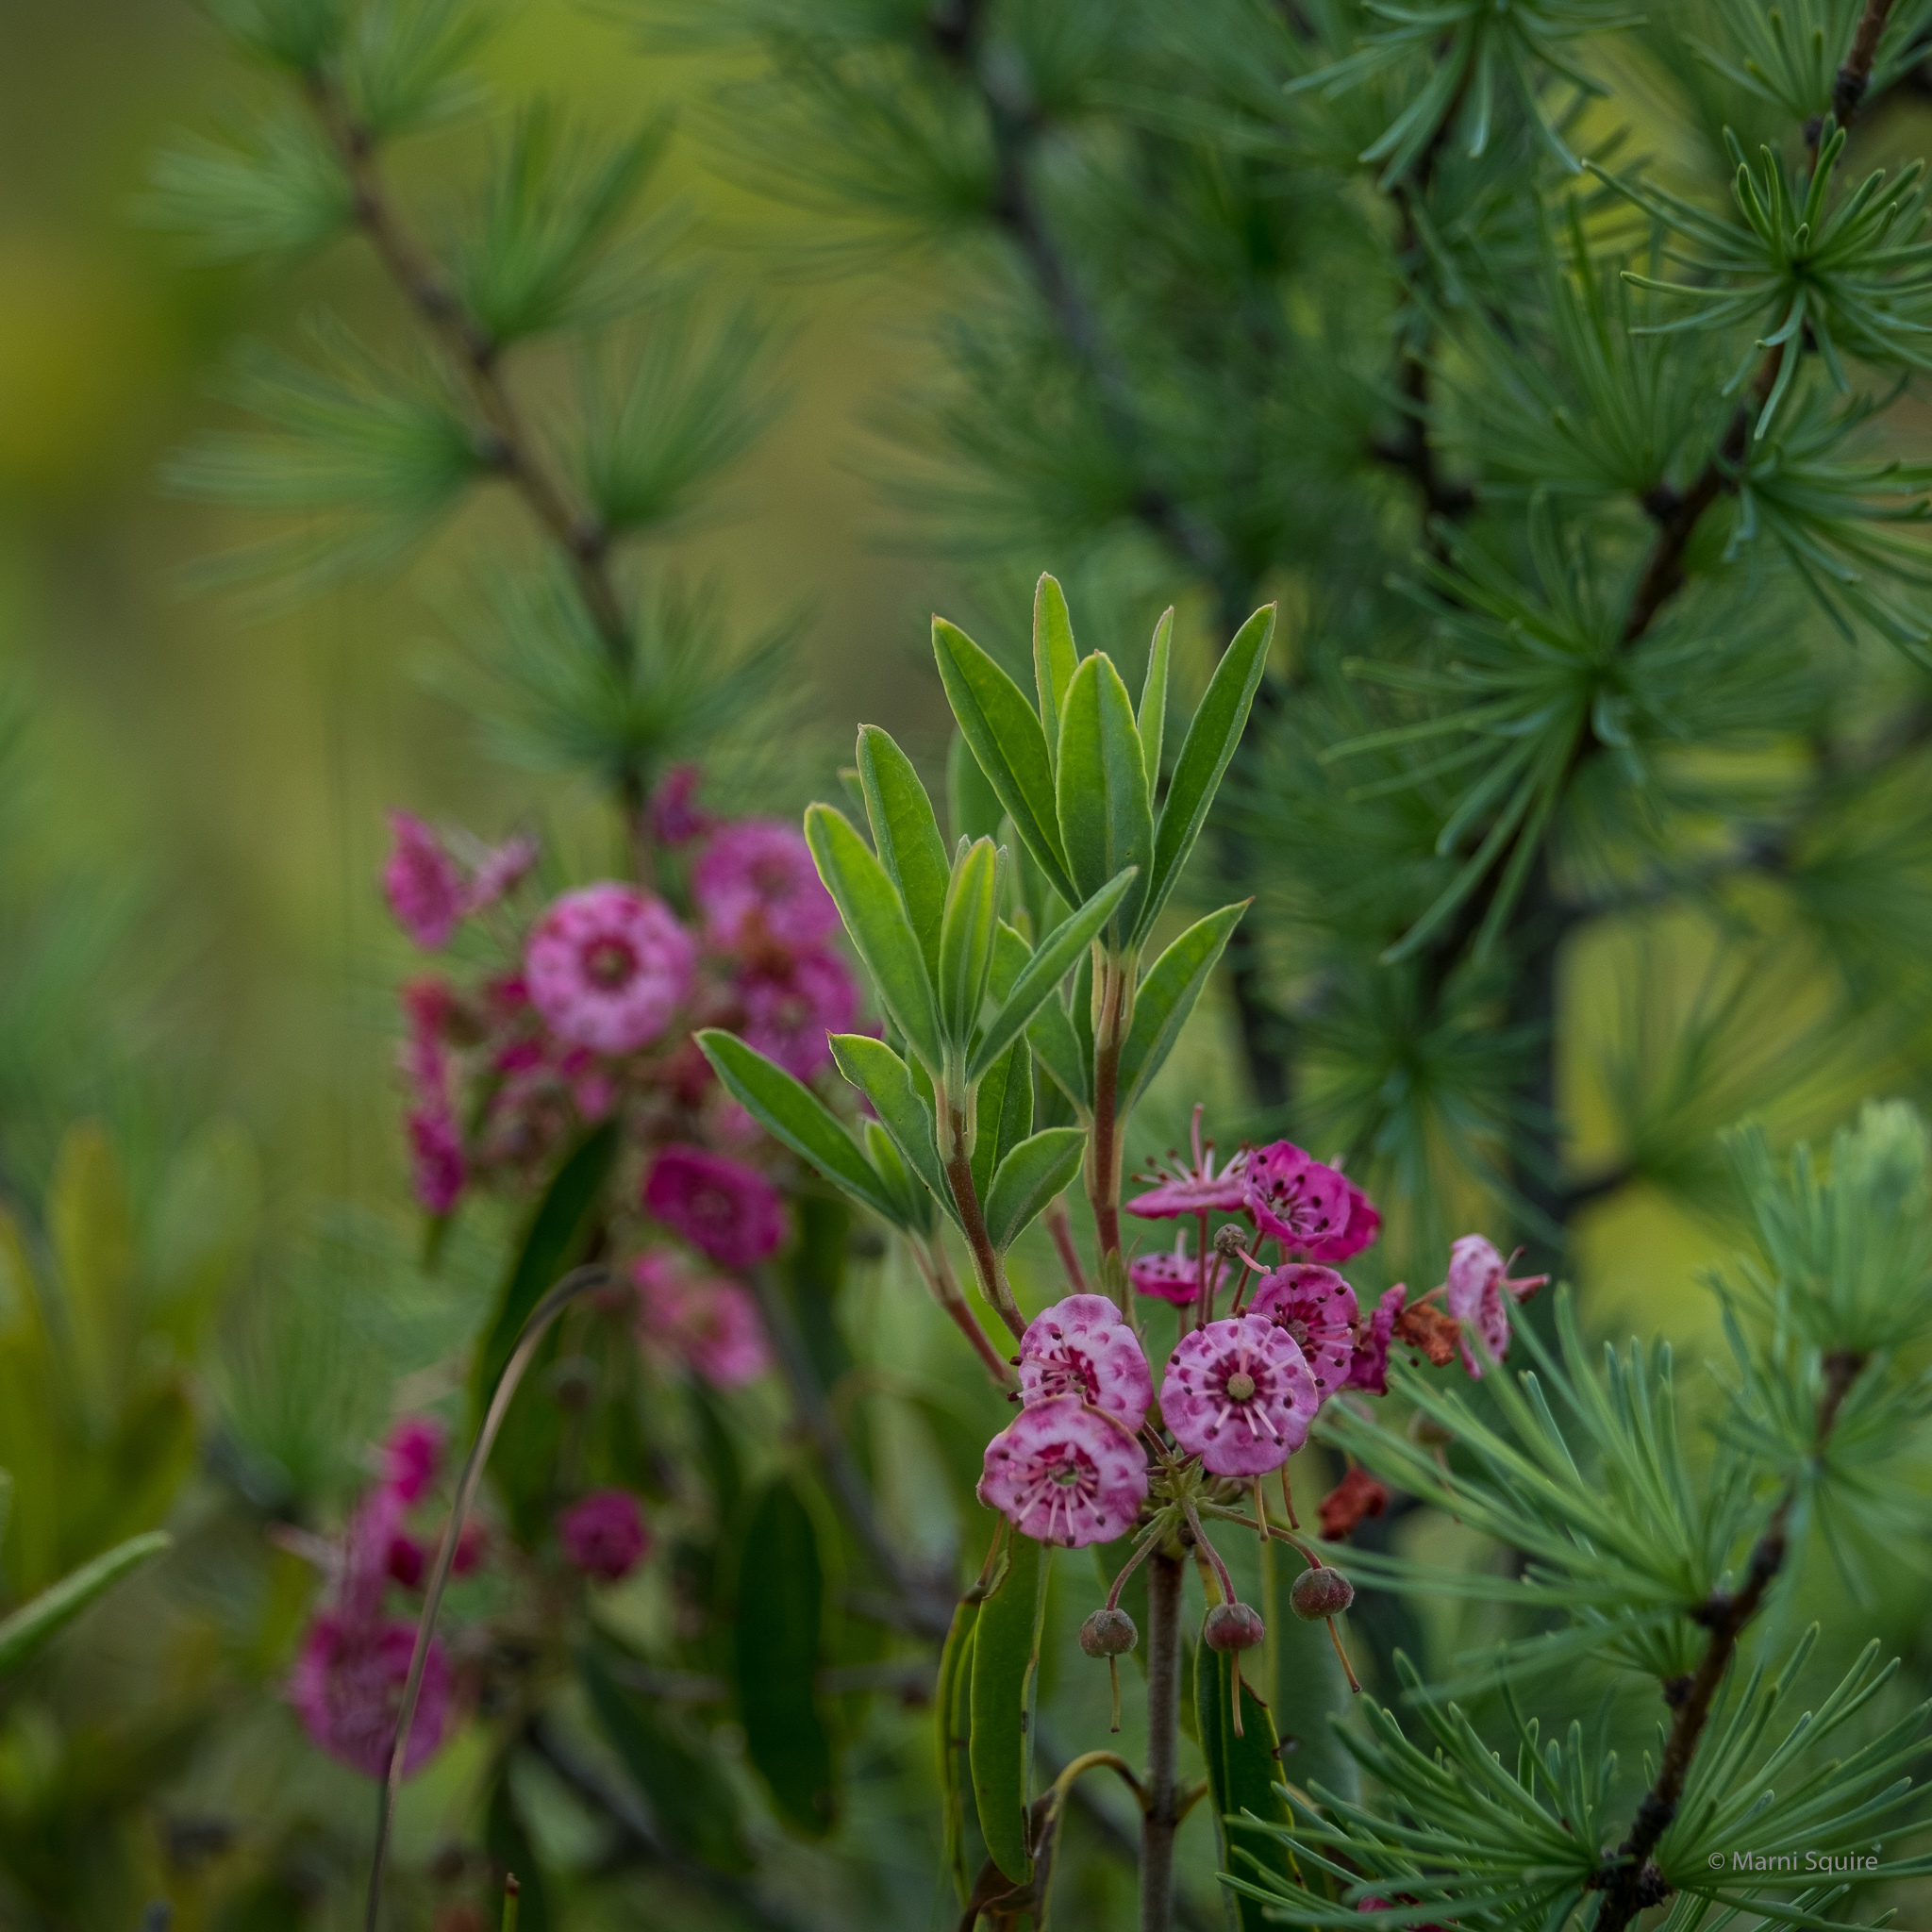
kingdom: Plantae
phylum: Tracheophyta
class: Magnoliopsida
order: Ericales
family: Ericaceae
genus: Kalmia
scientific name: Kalmia polifolia
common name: Bog-laurel
